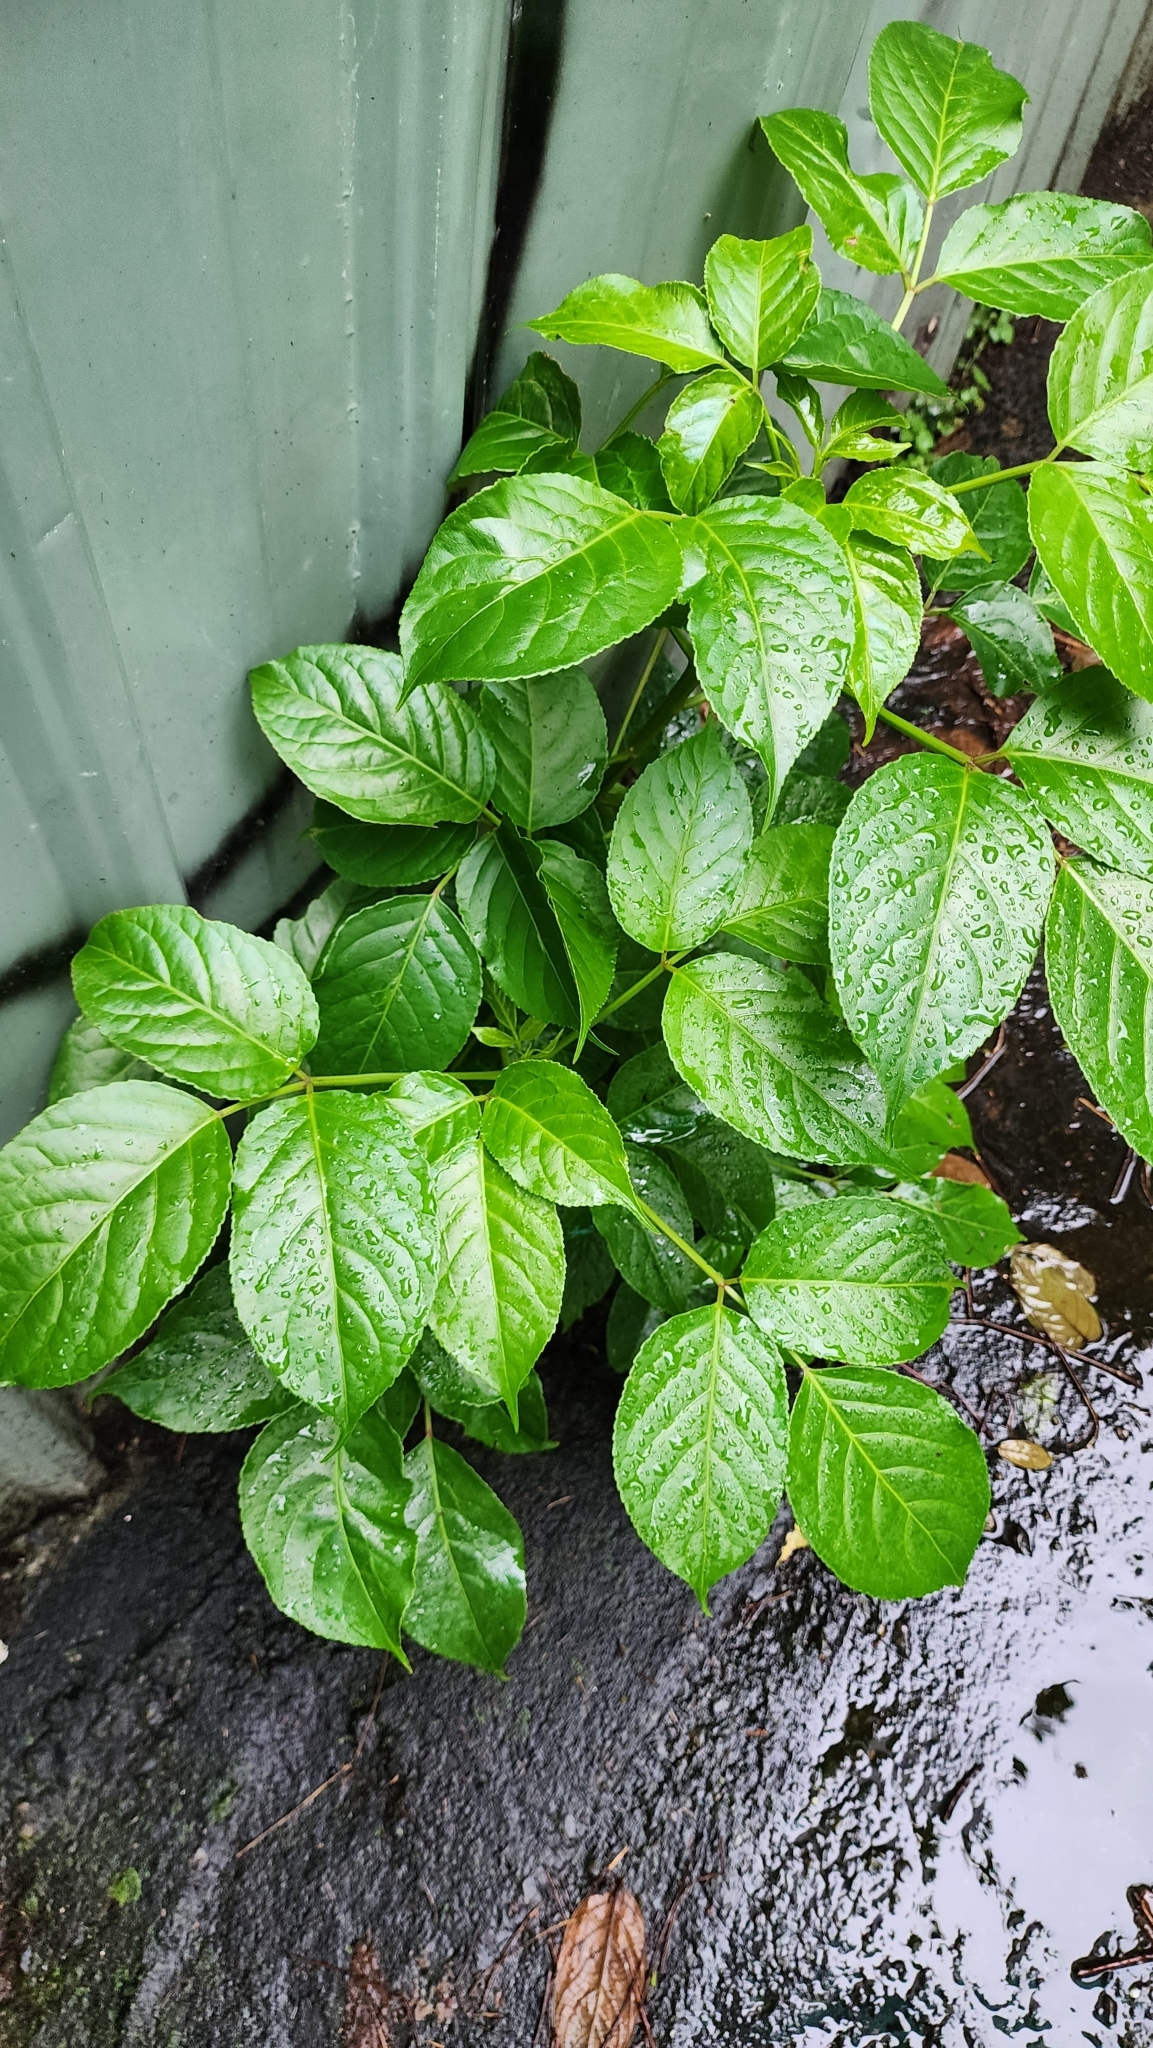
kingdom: Plantae
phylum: Tracheophyta
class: Magnoliopsida
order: Malpighiales
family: Phyllanthaceae
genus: Bischofia
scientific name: Bischofia javanica
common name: Javanese bishopwood
